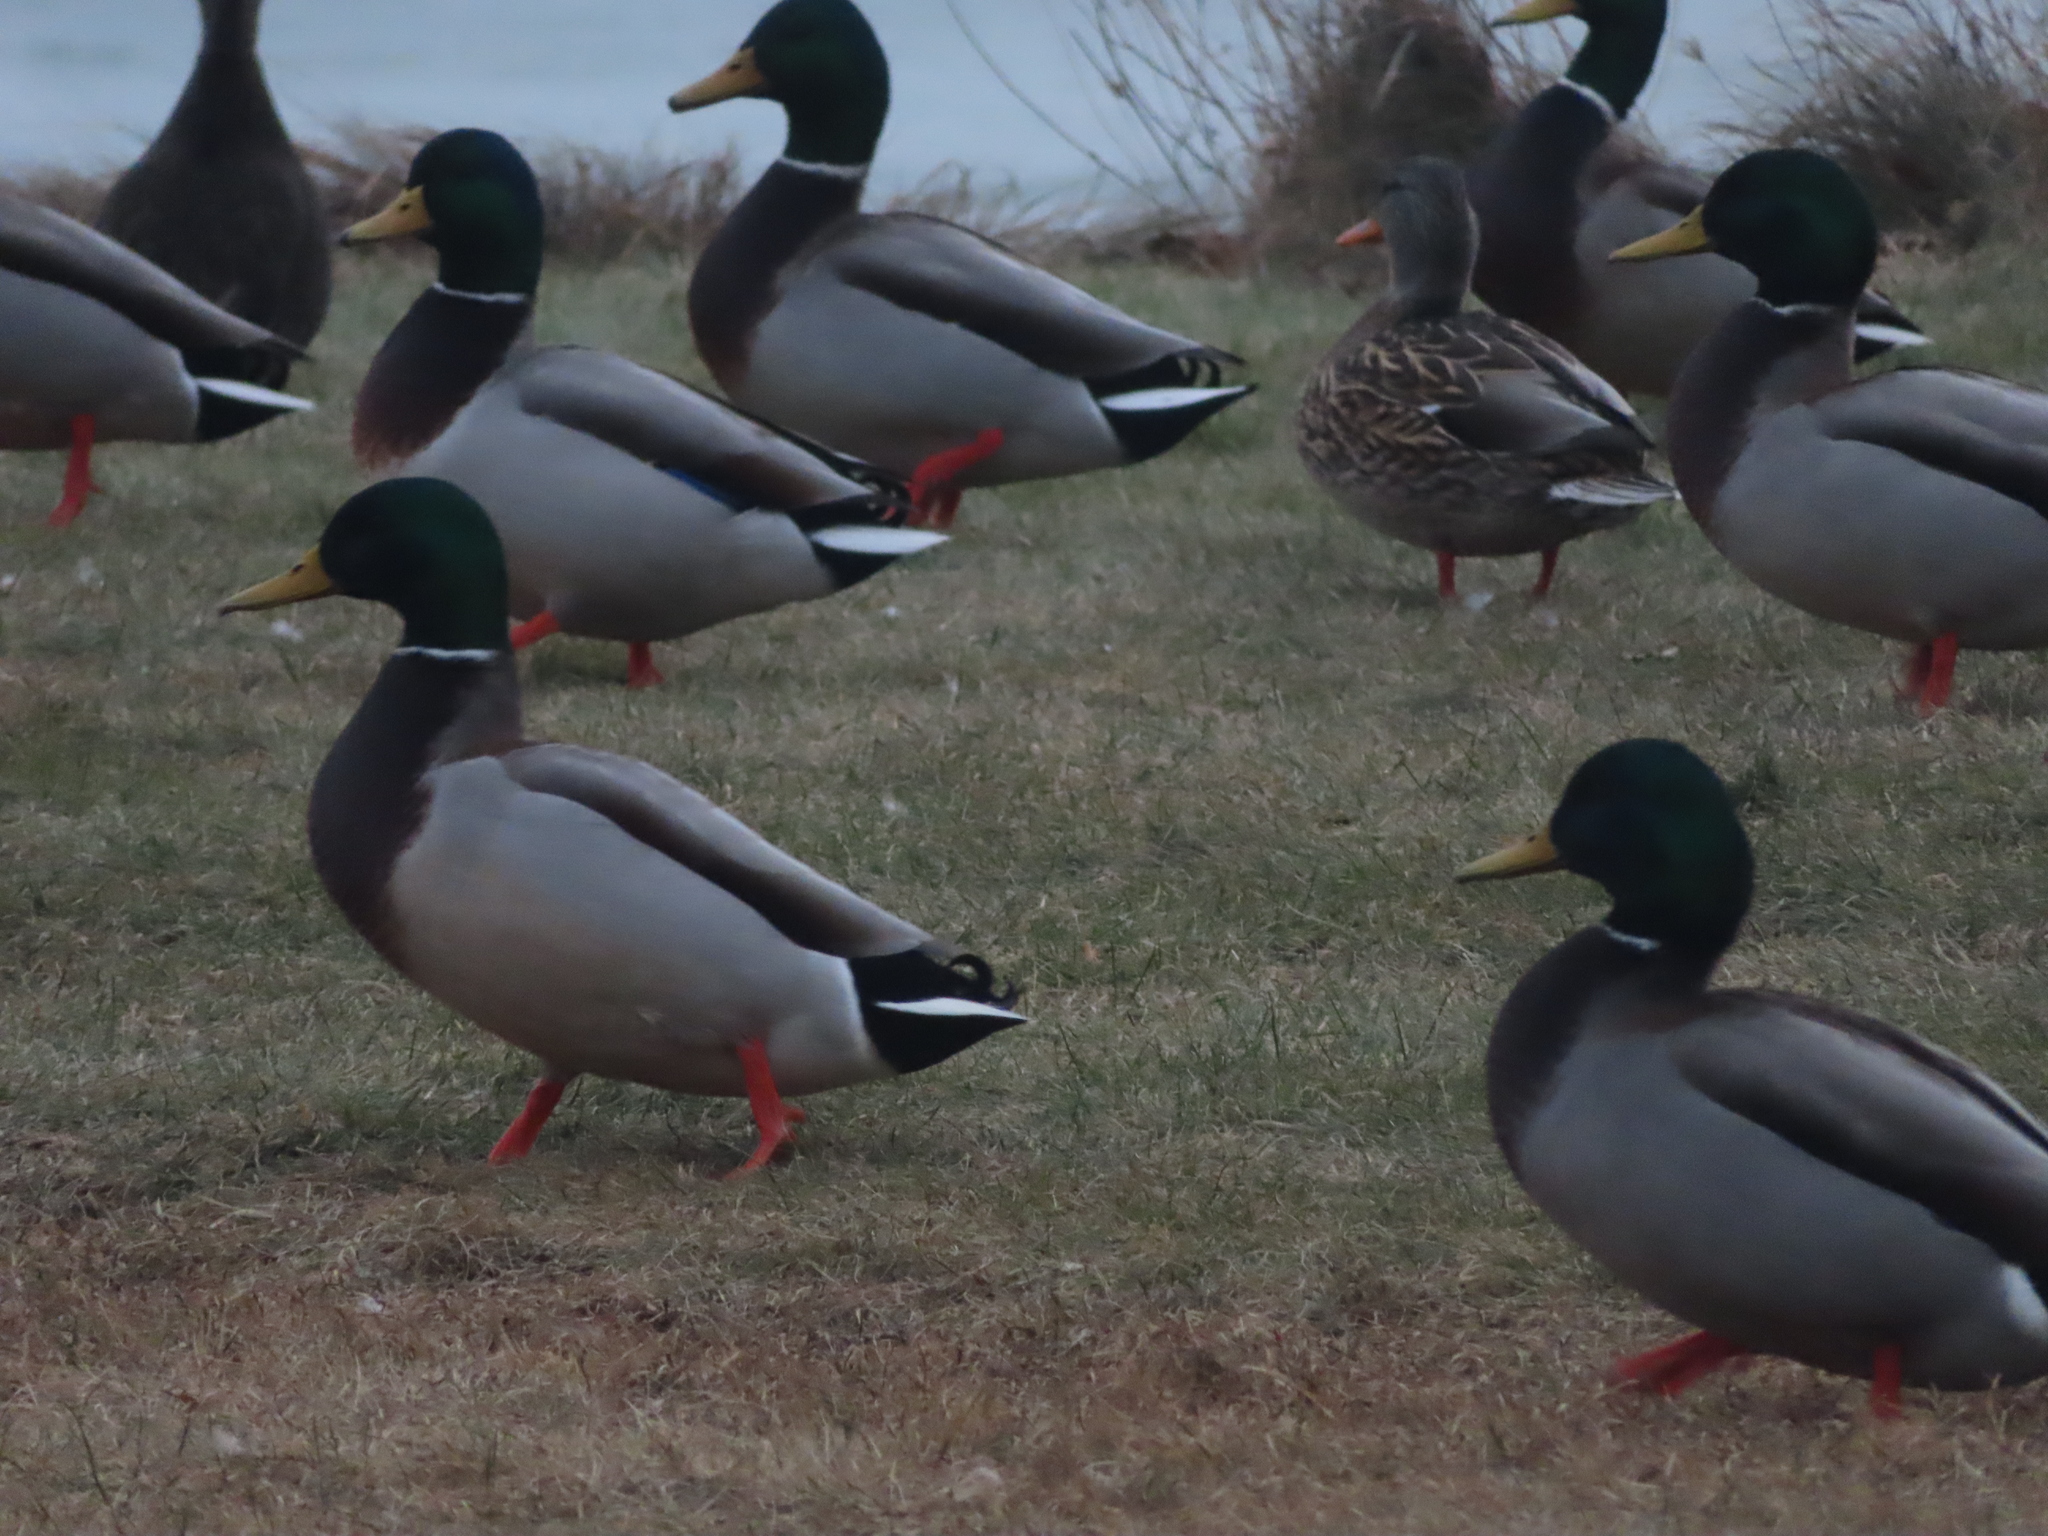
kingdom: Animalia
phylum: Chordata
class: Aves
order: Anseriformes
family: Anatidae
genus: Anas
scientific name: Anas platyrhynchos
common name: Mallard
